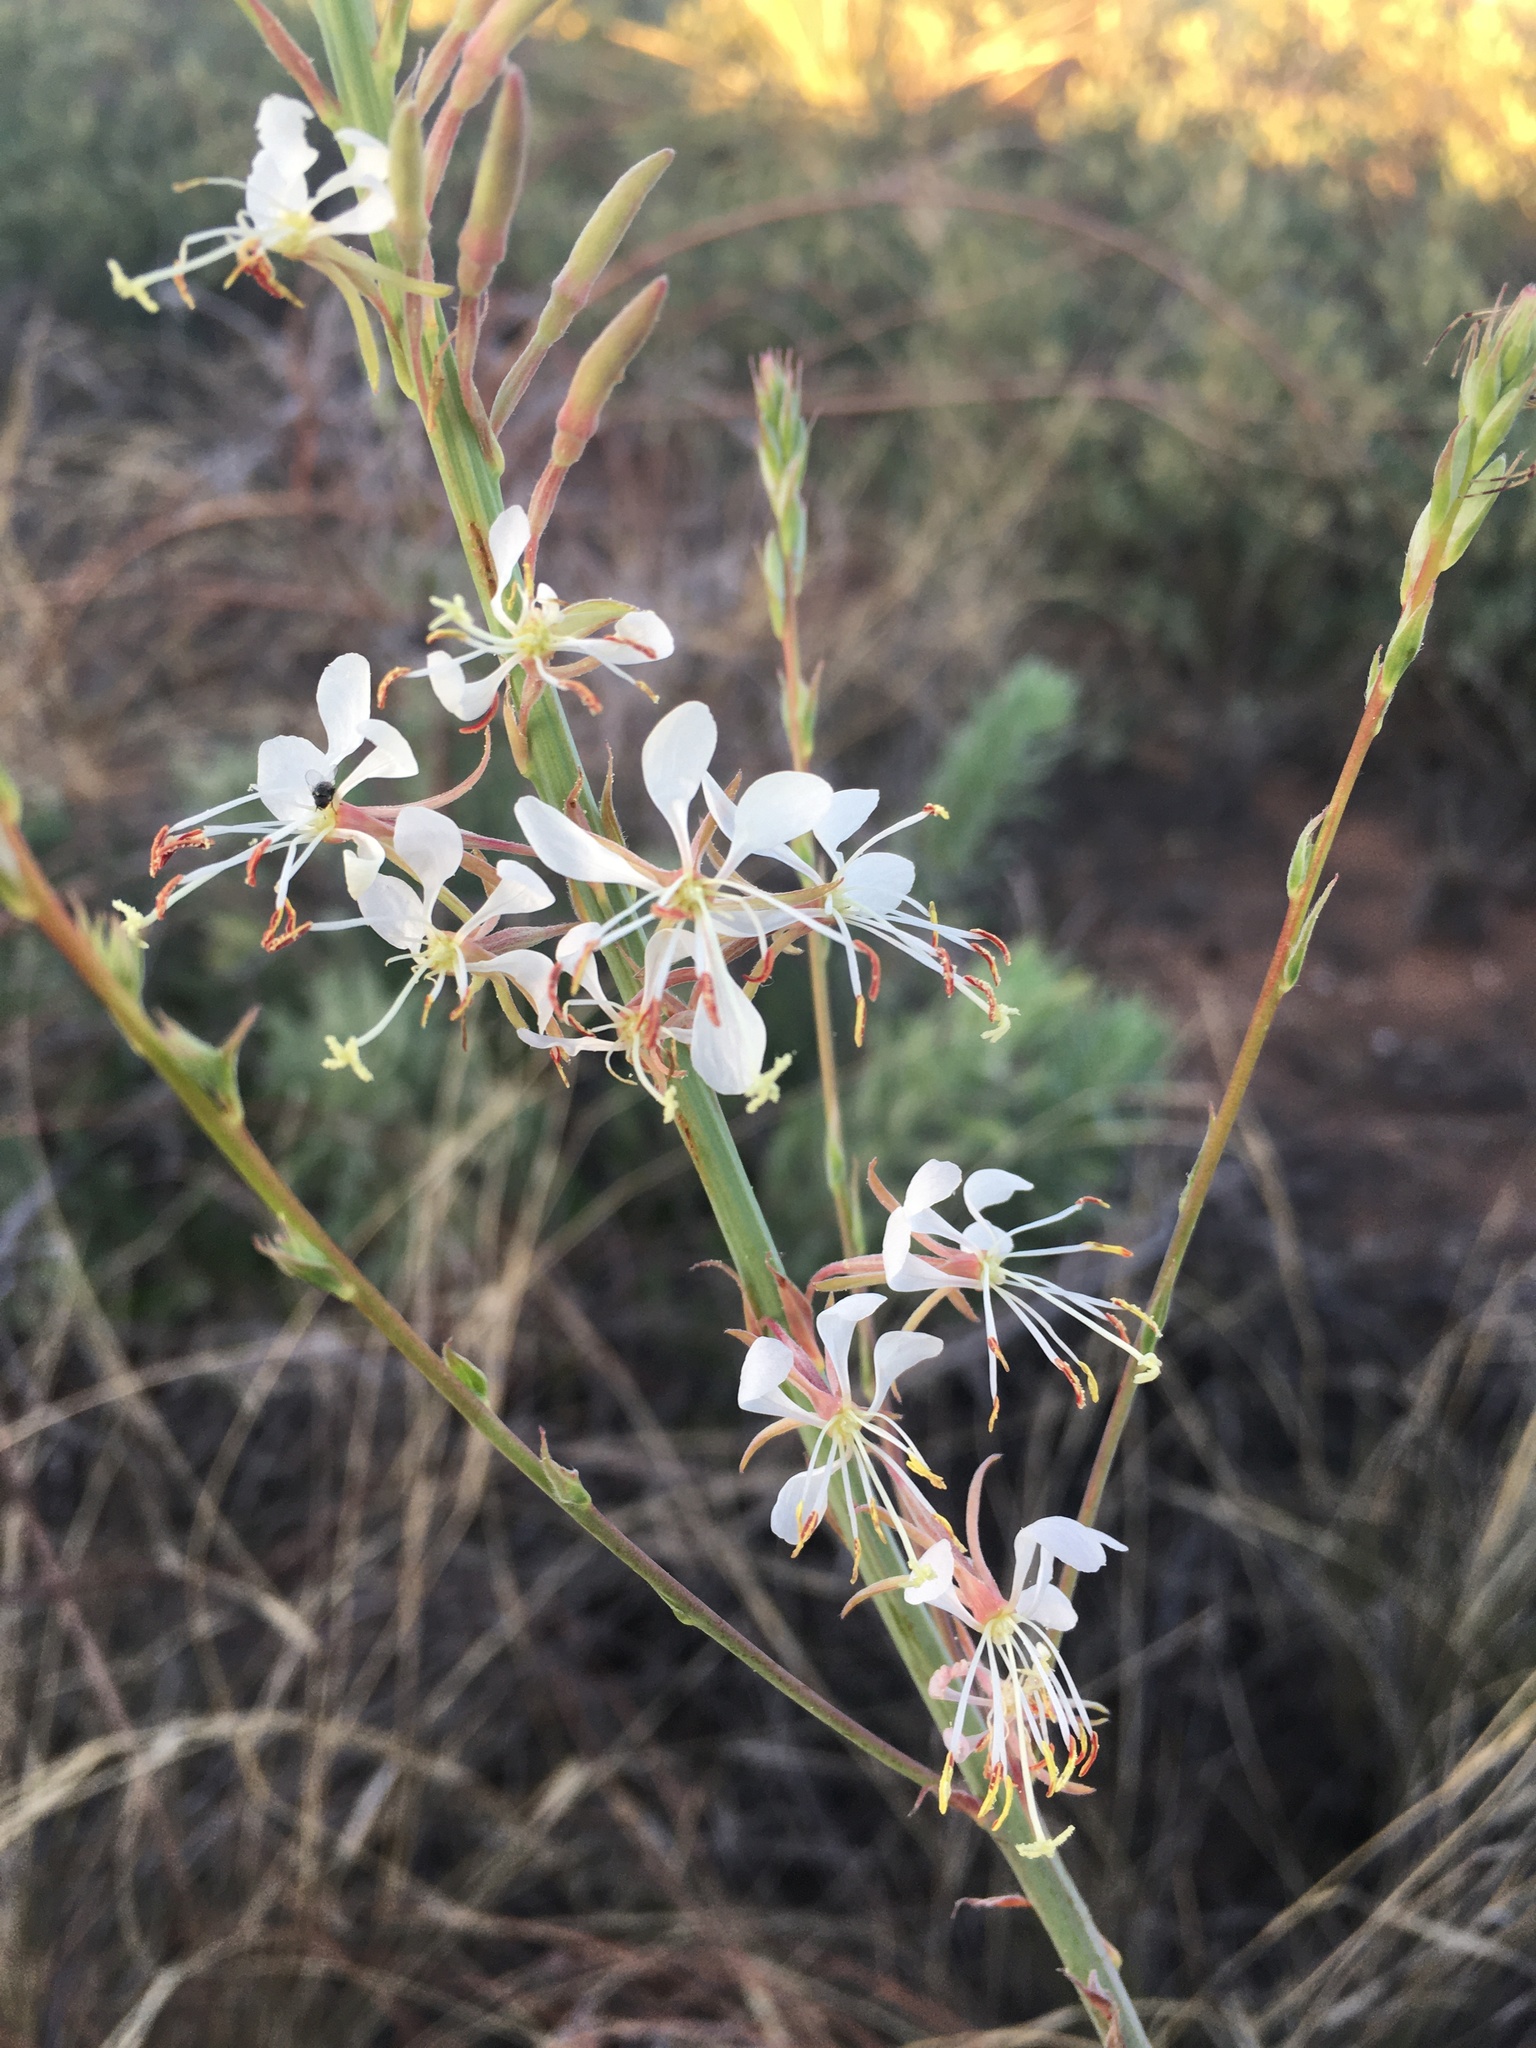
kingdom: Plantae
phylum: Tracheophyta
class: Magnoliopsida
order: Myrtales
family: Onagraceae
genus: Oenothera
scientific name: Oenothera cinerea
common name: Woolly beeblossom
